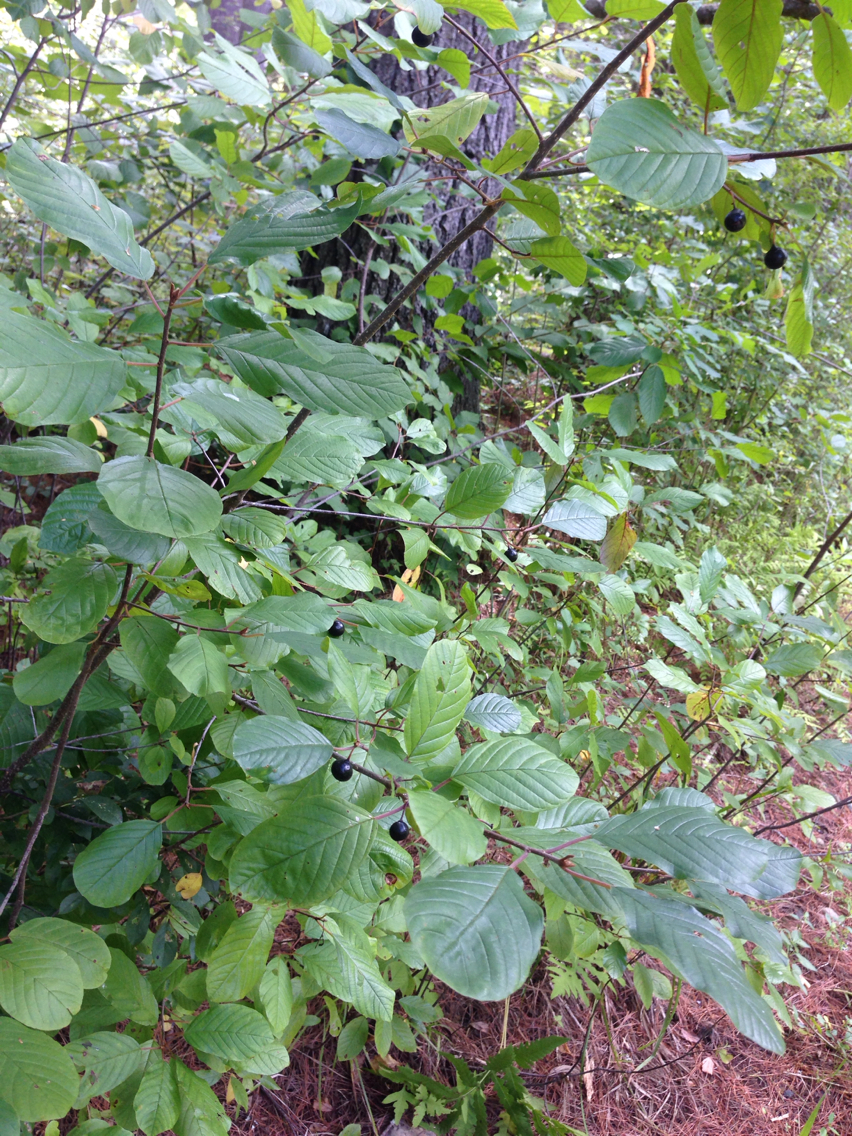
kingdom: Plantae
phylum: Tracheophyta
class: Magnoliopsida
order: Rosales
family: Rhamnaceae
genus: Frangula
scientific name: Frangula alnus
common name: Alder buckthorn
